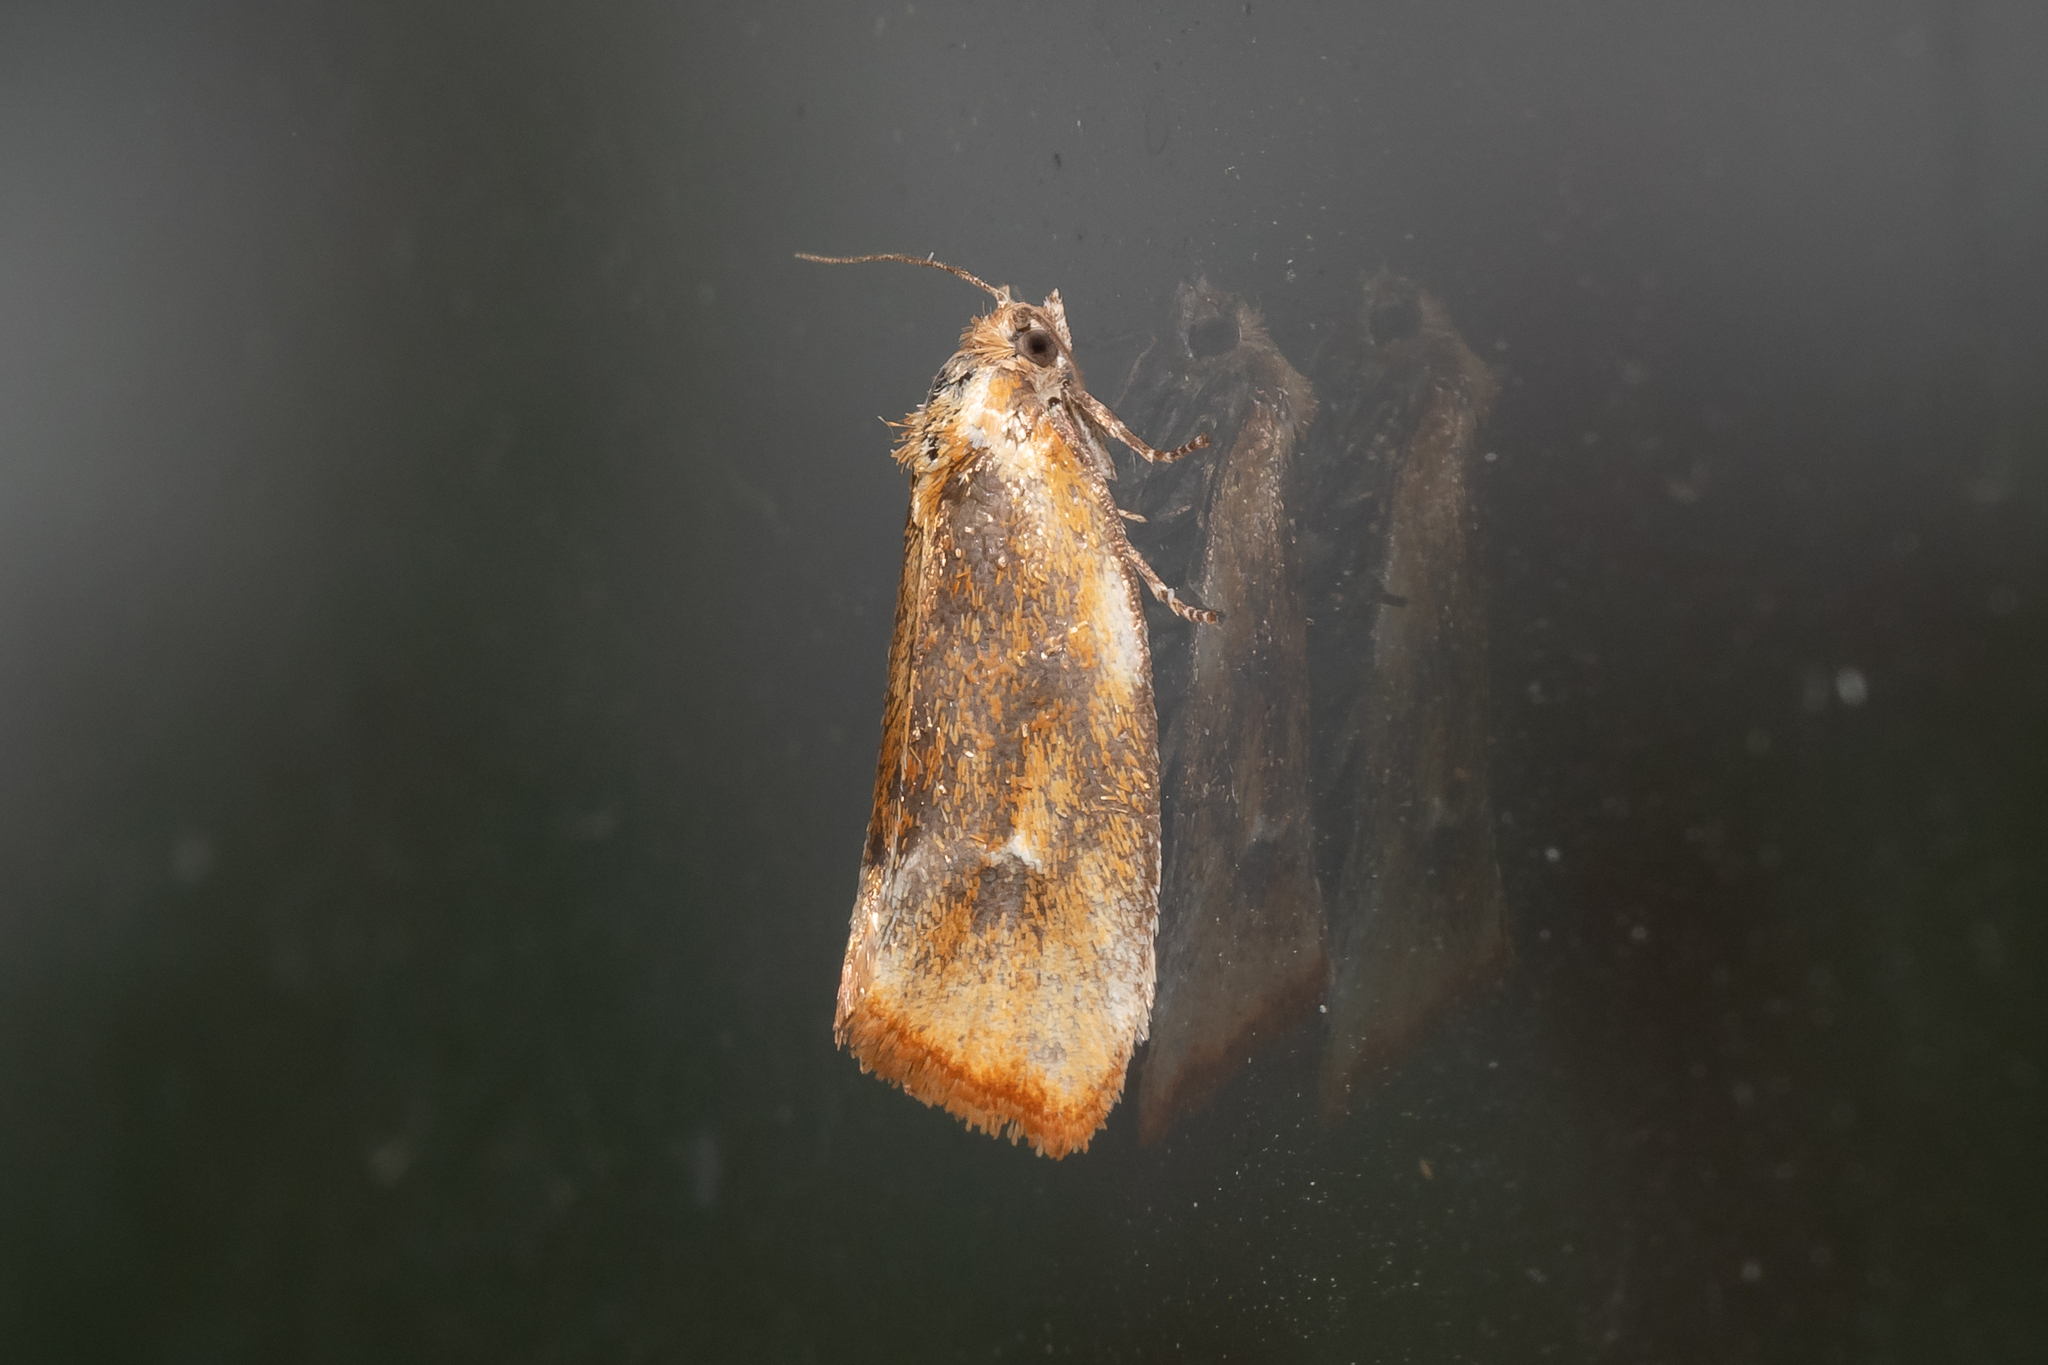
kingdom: Animalia
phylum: Arthropoda
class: Insecta
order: Lepidoptera
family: Tortricidae
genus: Eulia
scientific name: Eulia ministrana
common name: Brassy twist
